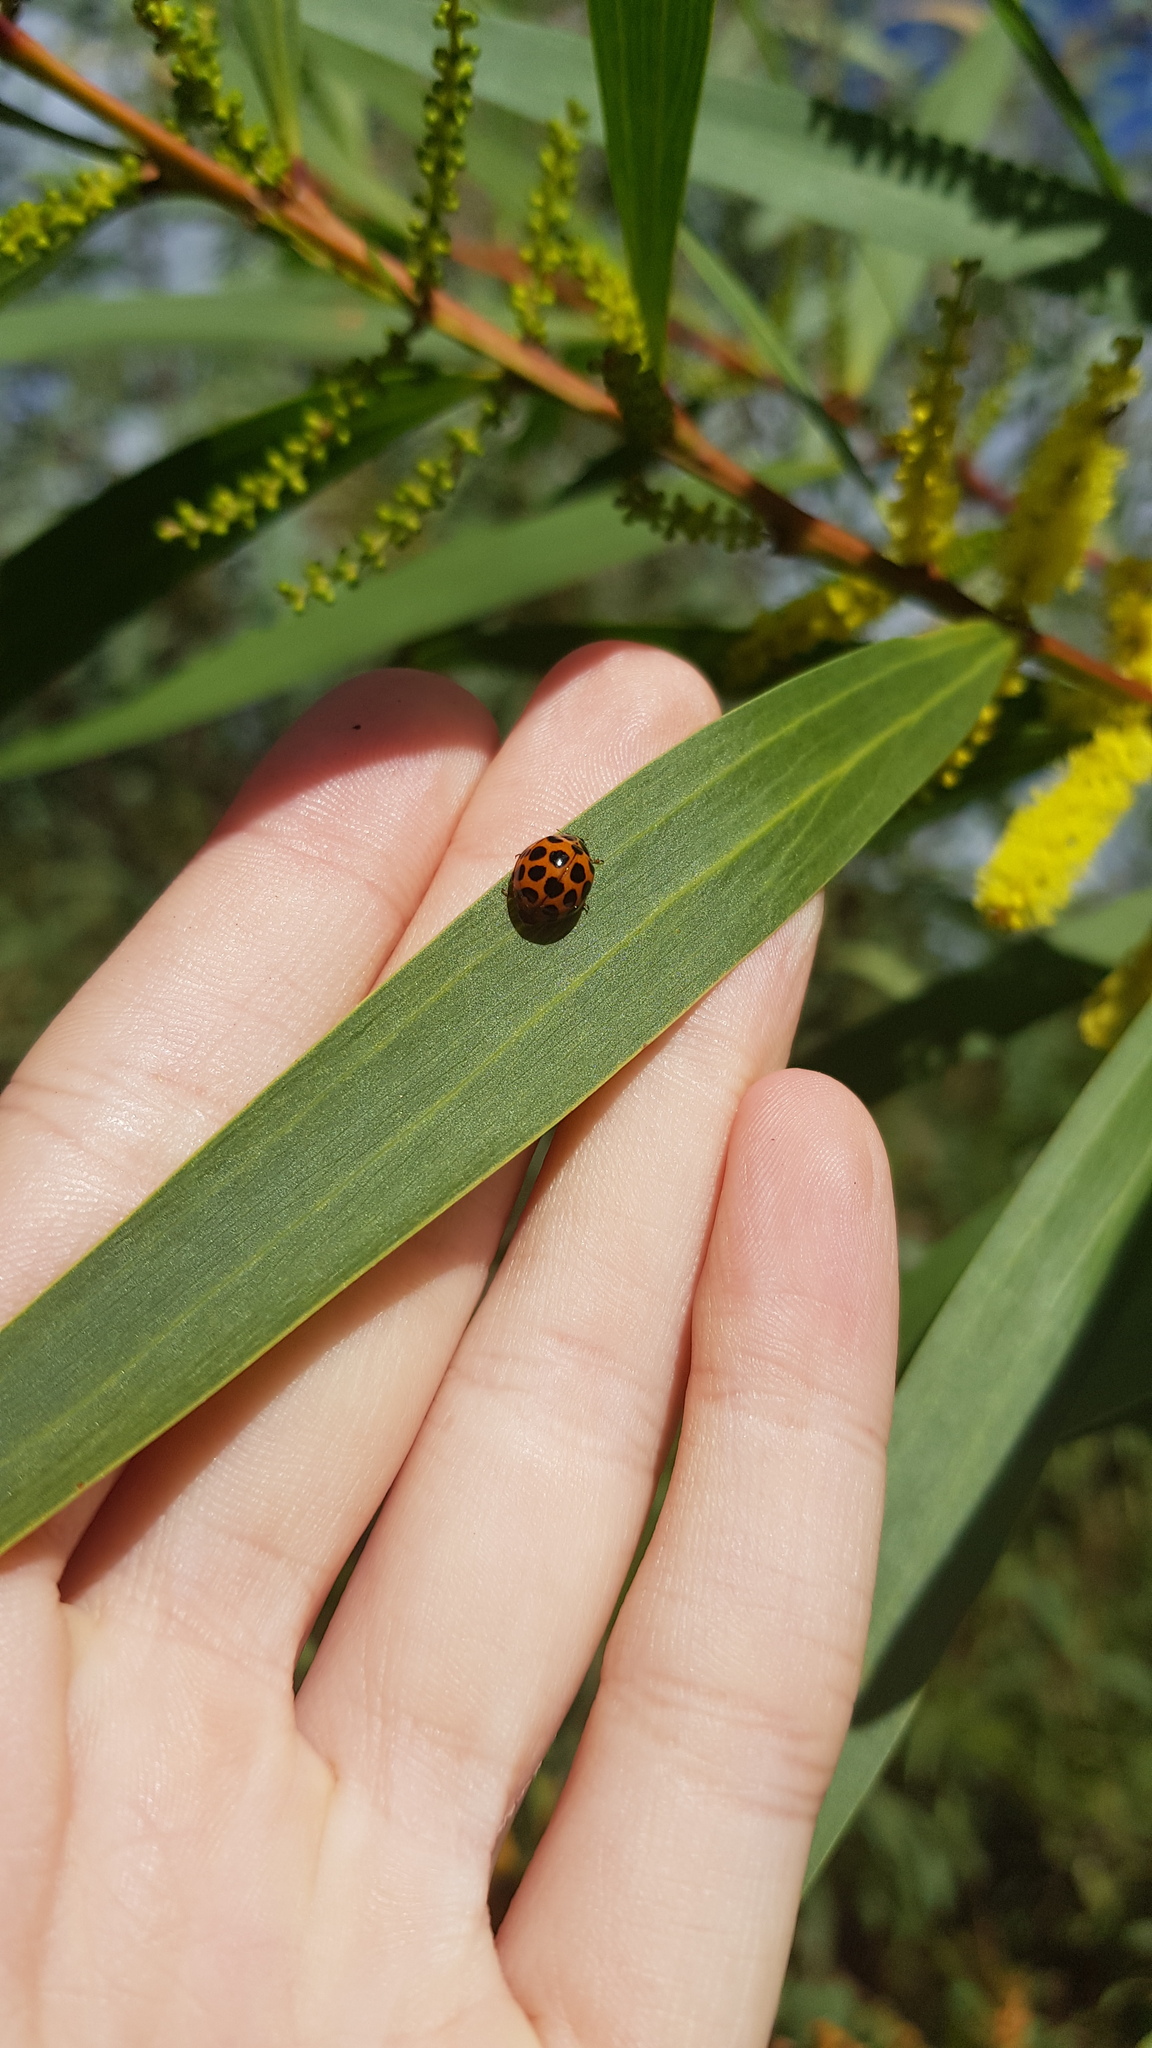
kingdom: Animalia
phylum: Arthropoda
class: Insecta
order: Coleoptera
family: Coccinellidae
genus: Harmonia
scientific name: Harmonia conformis
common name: Common spotted ladybird beetle
